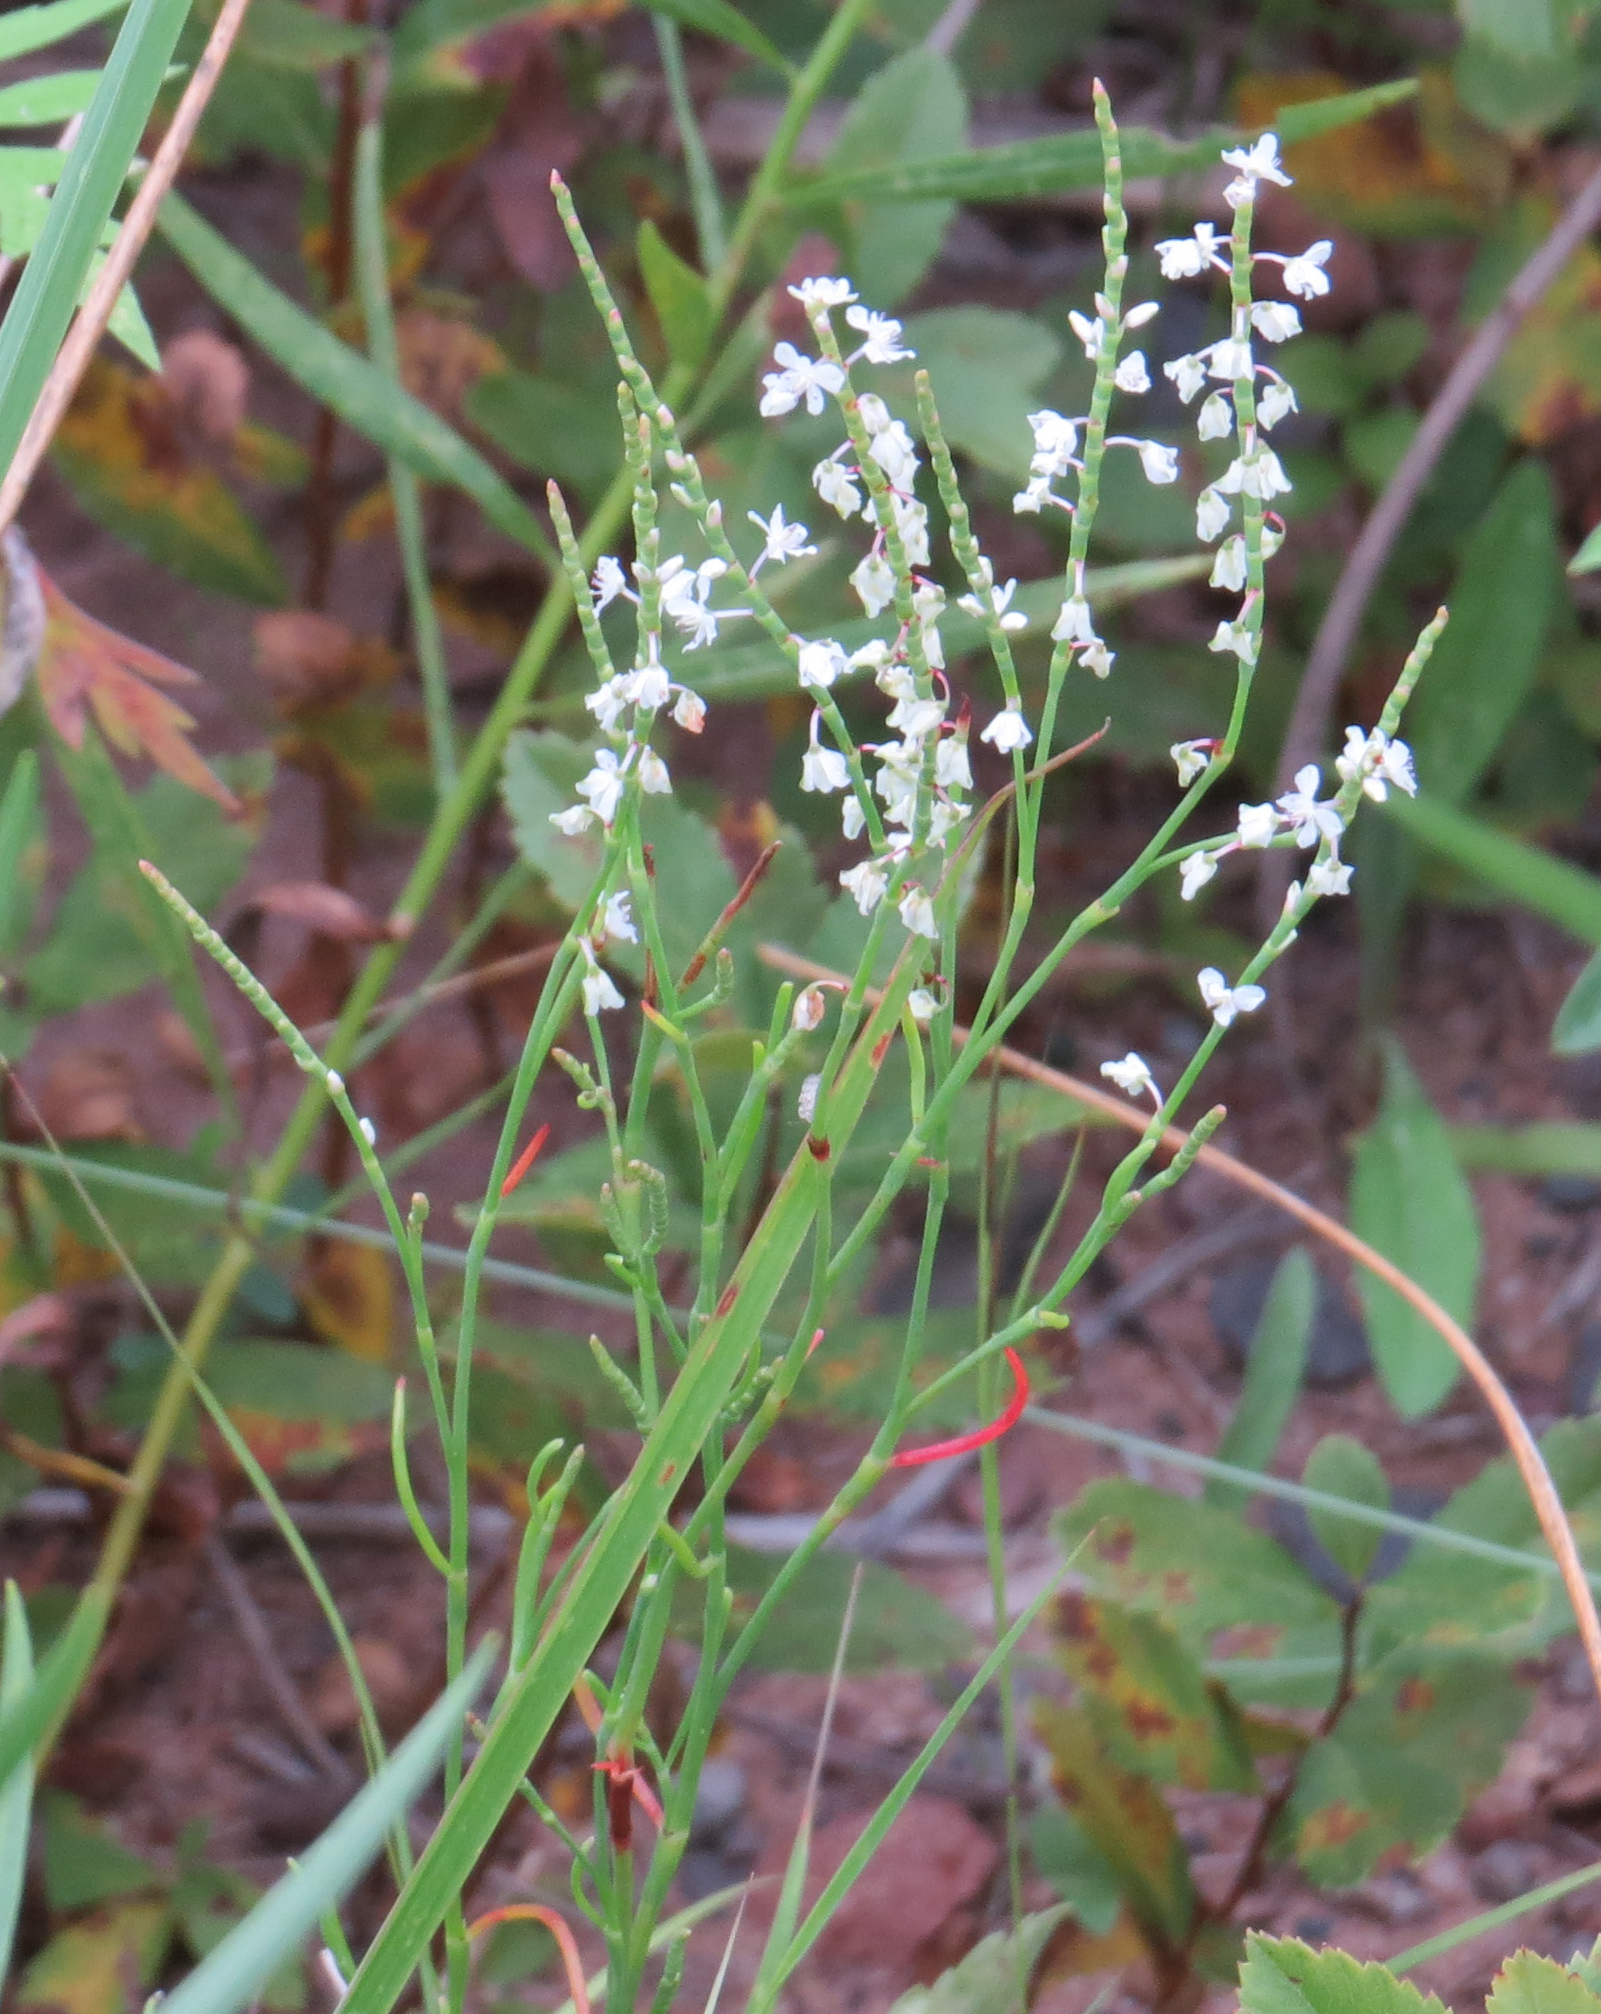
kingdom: Plantae
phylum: Tracheophyta
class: Magnoliopsida
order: Caryophyllales
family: Polygonaceae
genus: Polygonella
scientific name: Polygonella articulata
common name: Coastal jointweed
